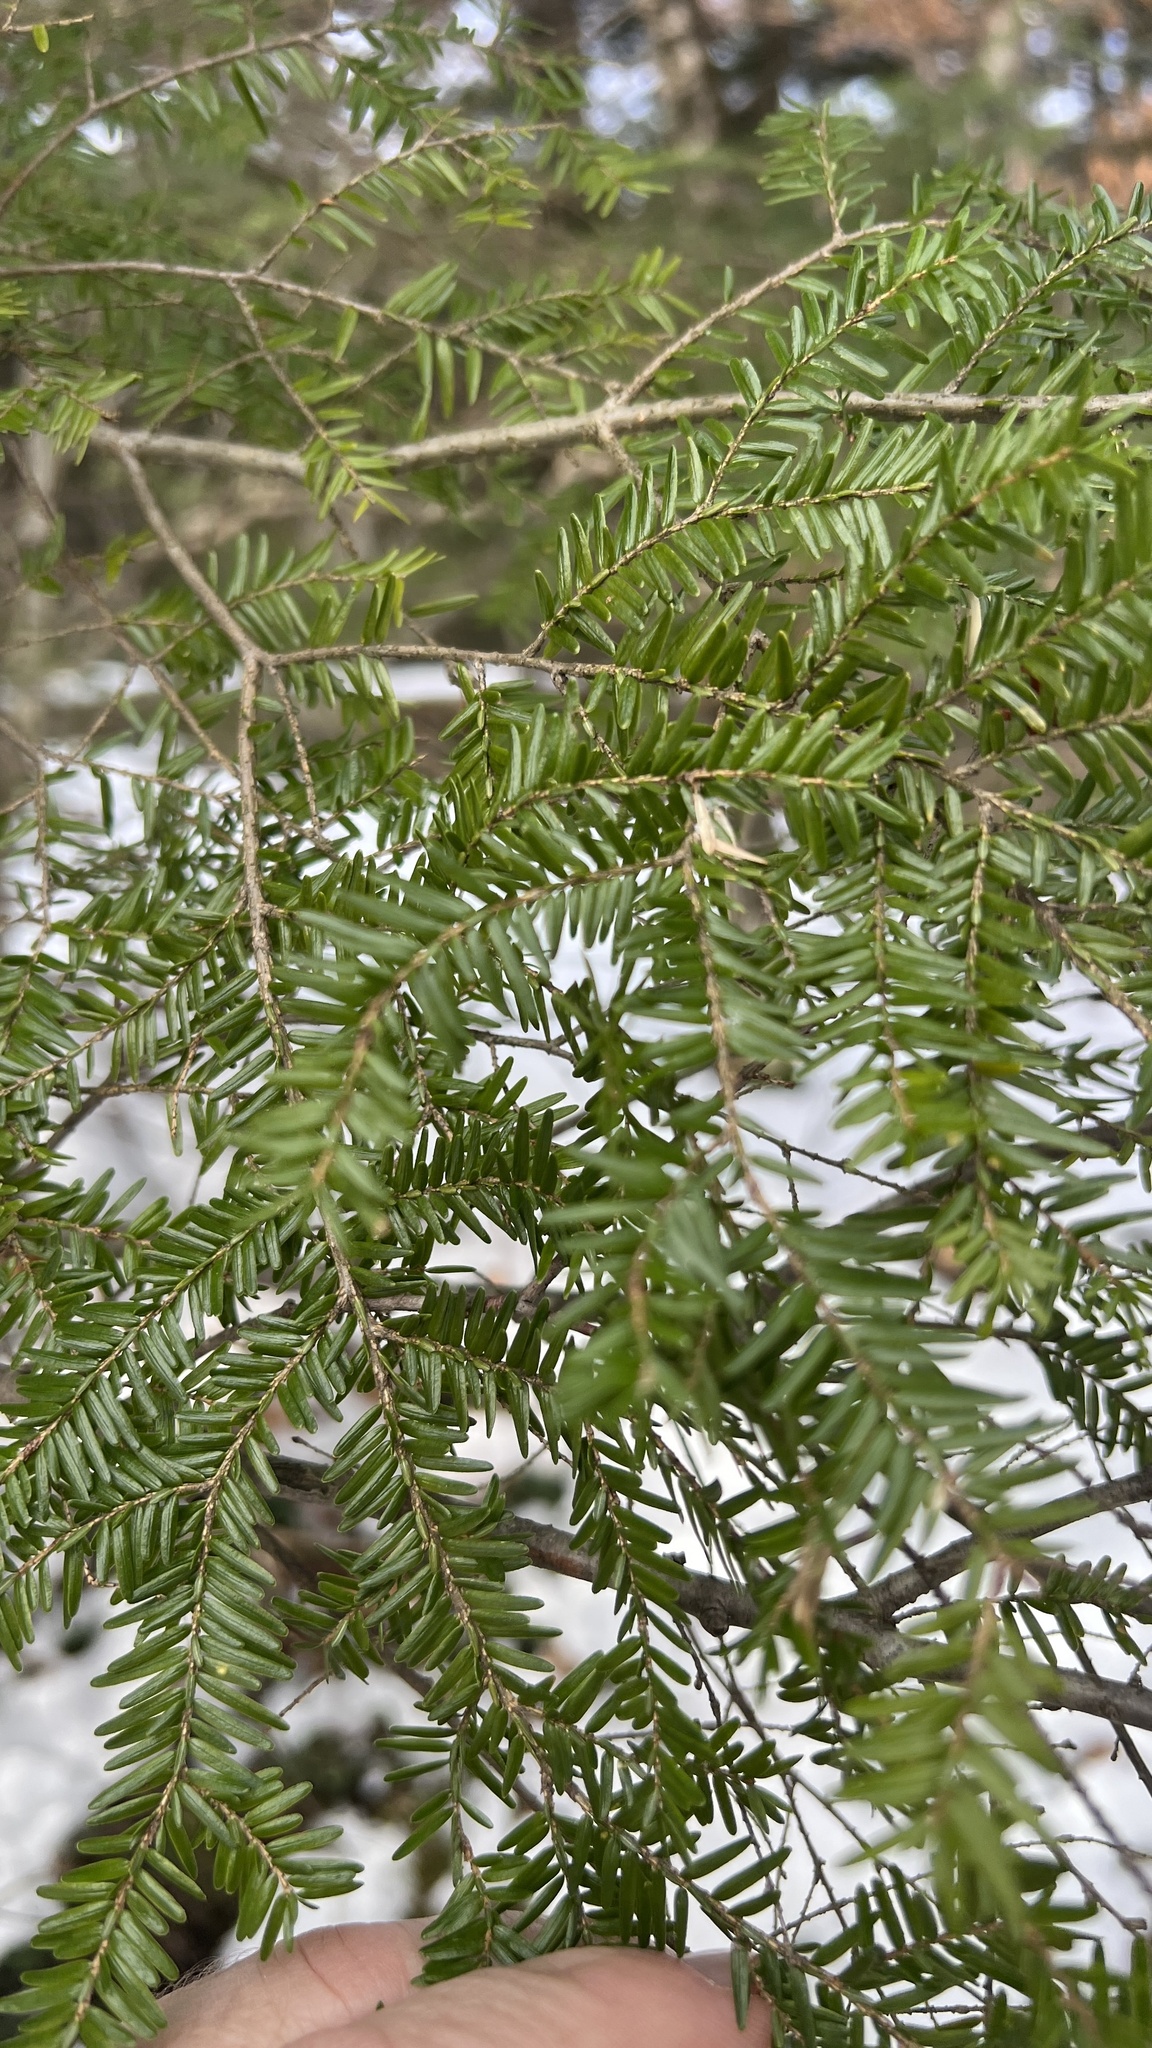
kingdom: Plantae
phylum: Tracheophyta
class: Pinopsida
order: Pinales
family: Pinaceae
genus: Tsuga
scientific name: Tsuga canadensis
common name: Eastern hemlock
